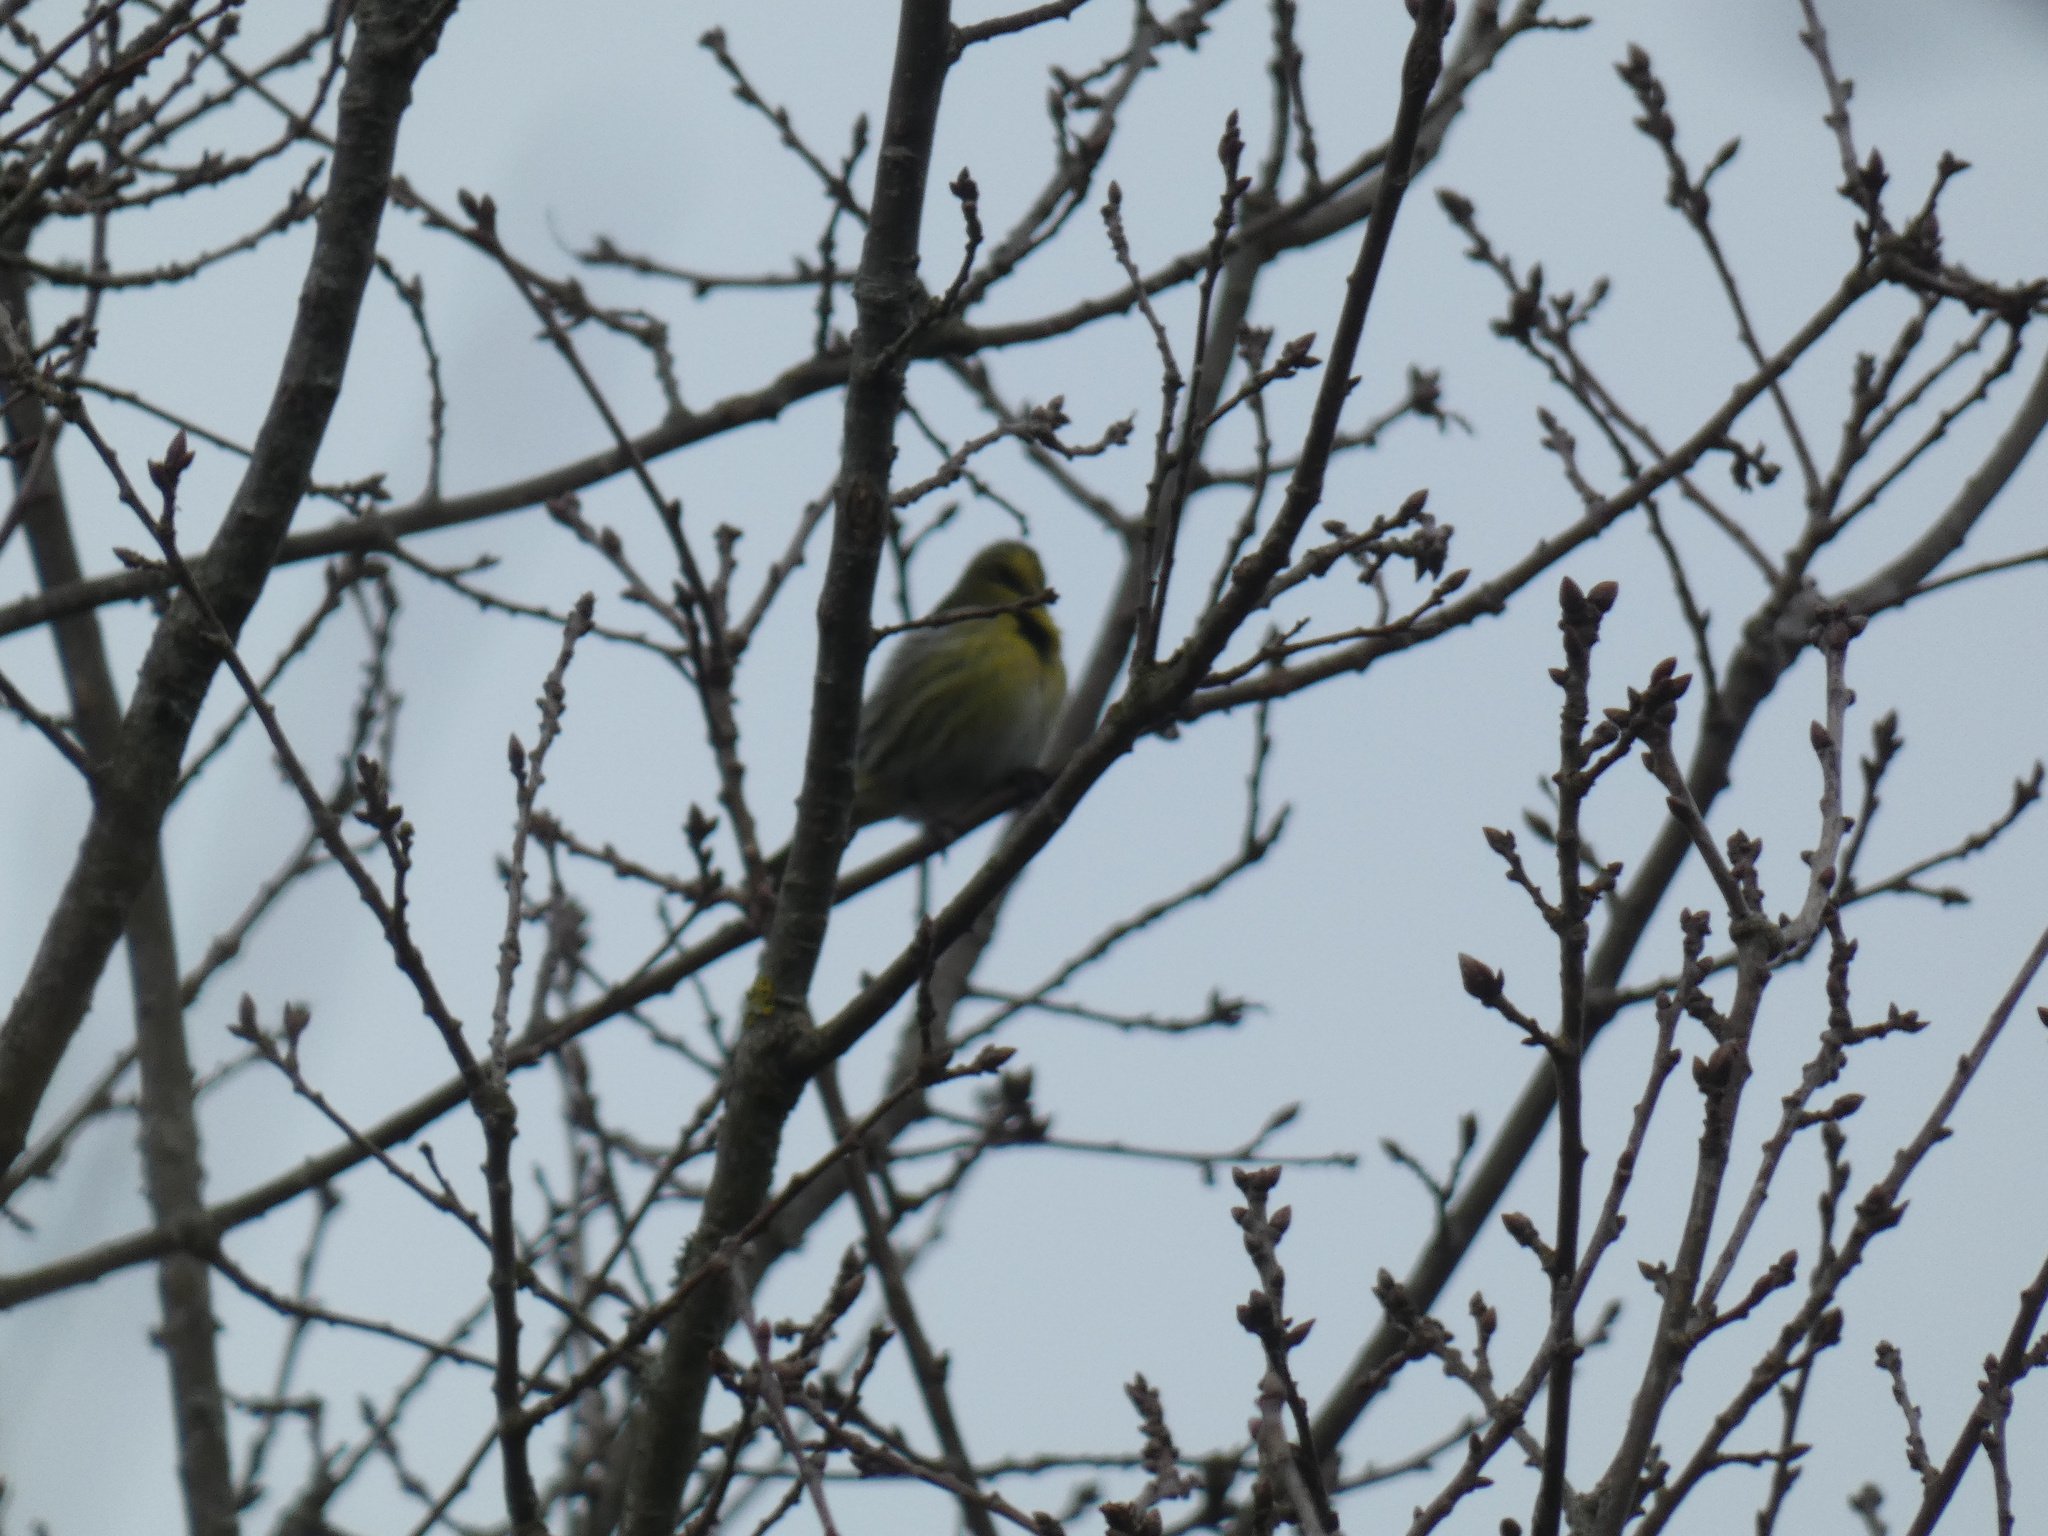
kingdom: Animalia
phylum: Chordata
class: Aves
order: Passeriformes
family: Fringillidae
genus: Spinus
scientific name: Spinus spinus
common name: Eurasian siskin
